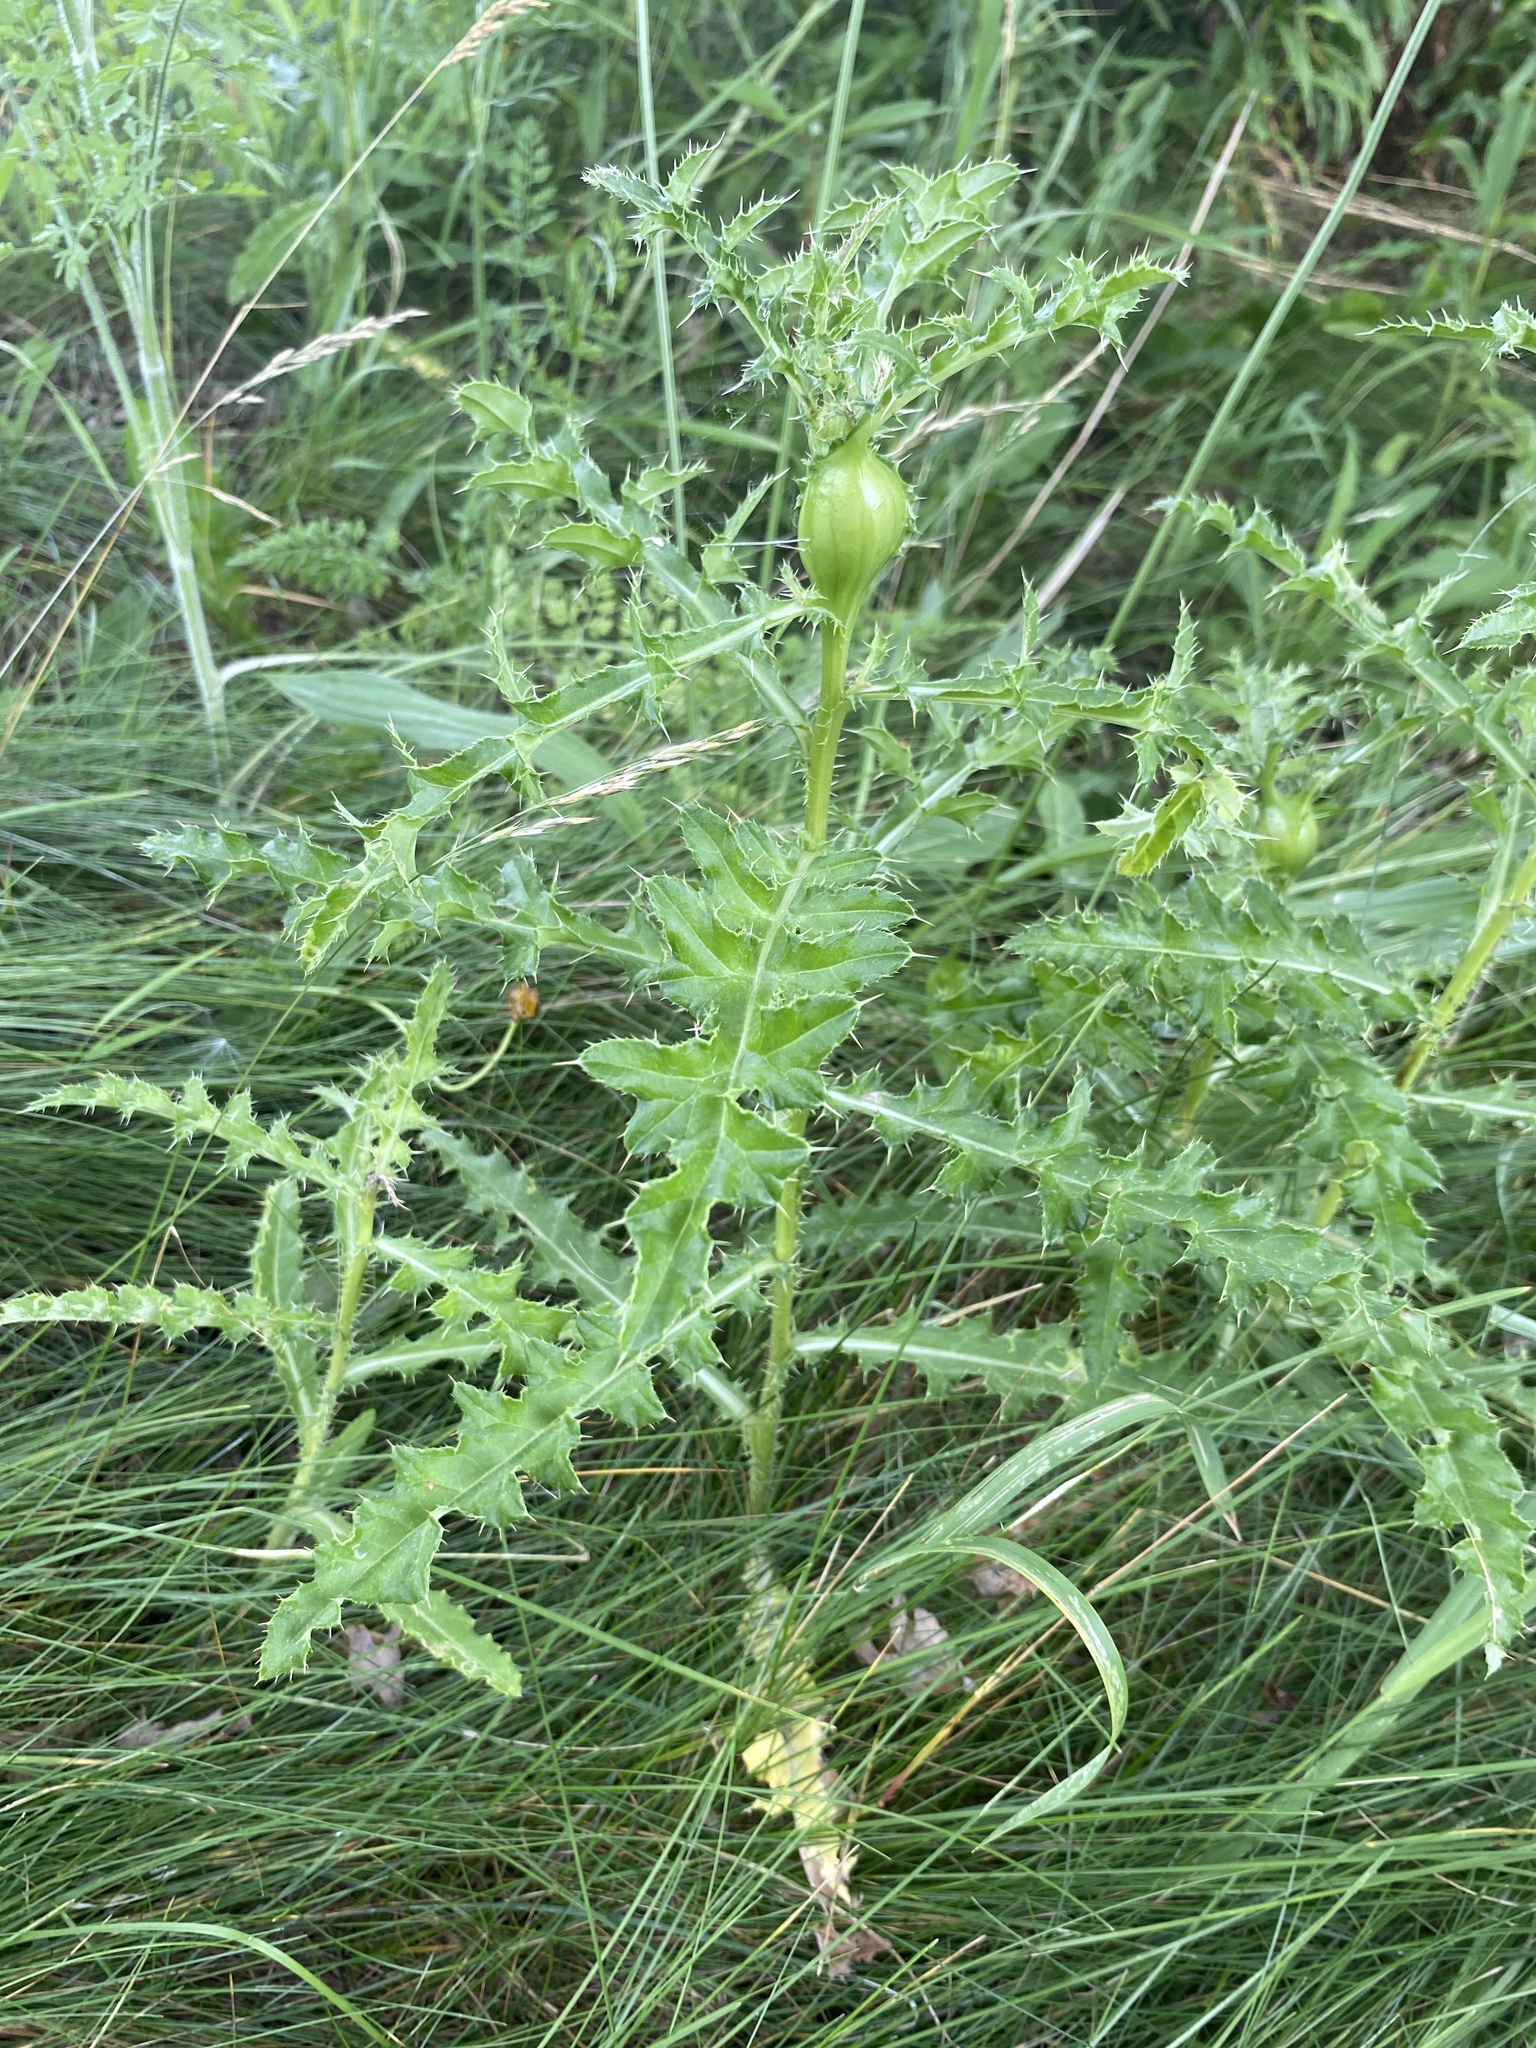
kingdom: Plantae
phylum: Tracheophyta
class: Magnoliopsida
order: Asterales
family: Asteraceae
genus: Cirsium
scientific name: Cirsium arvense
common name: Creeping thistle
